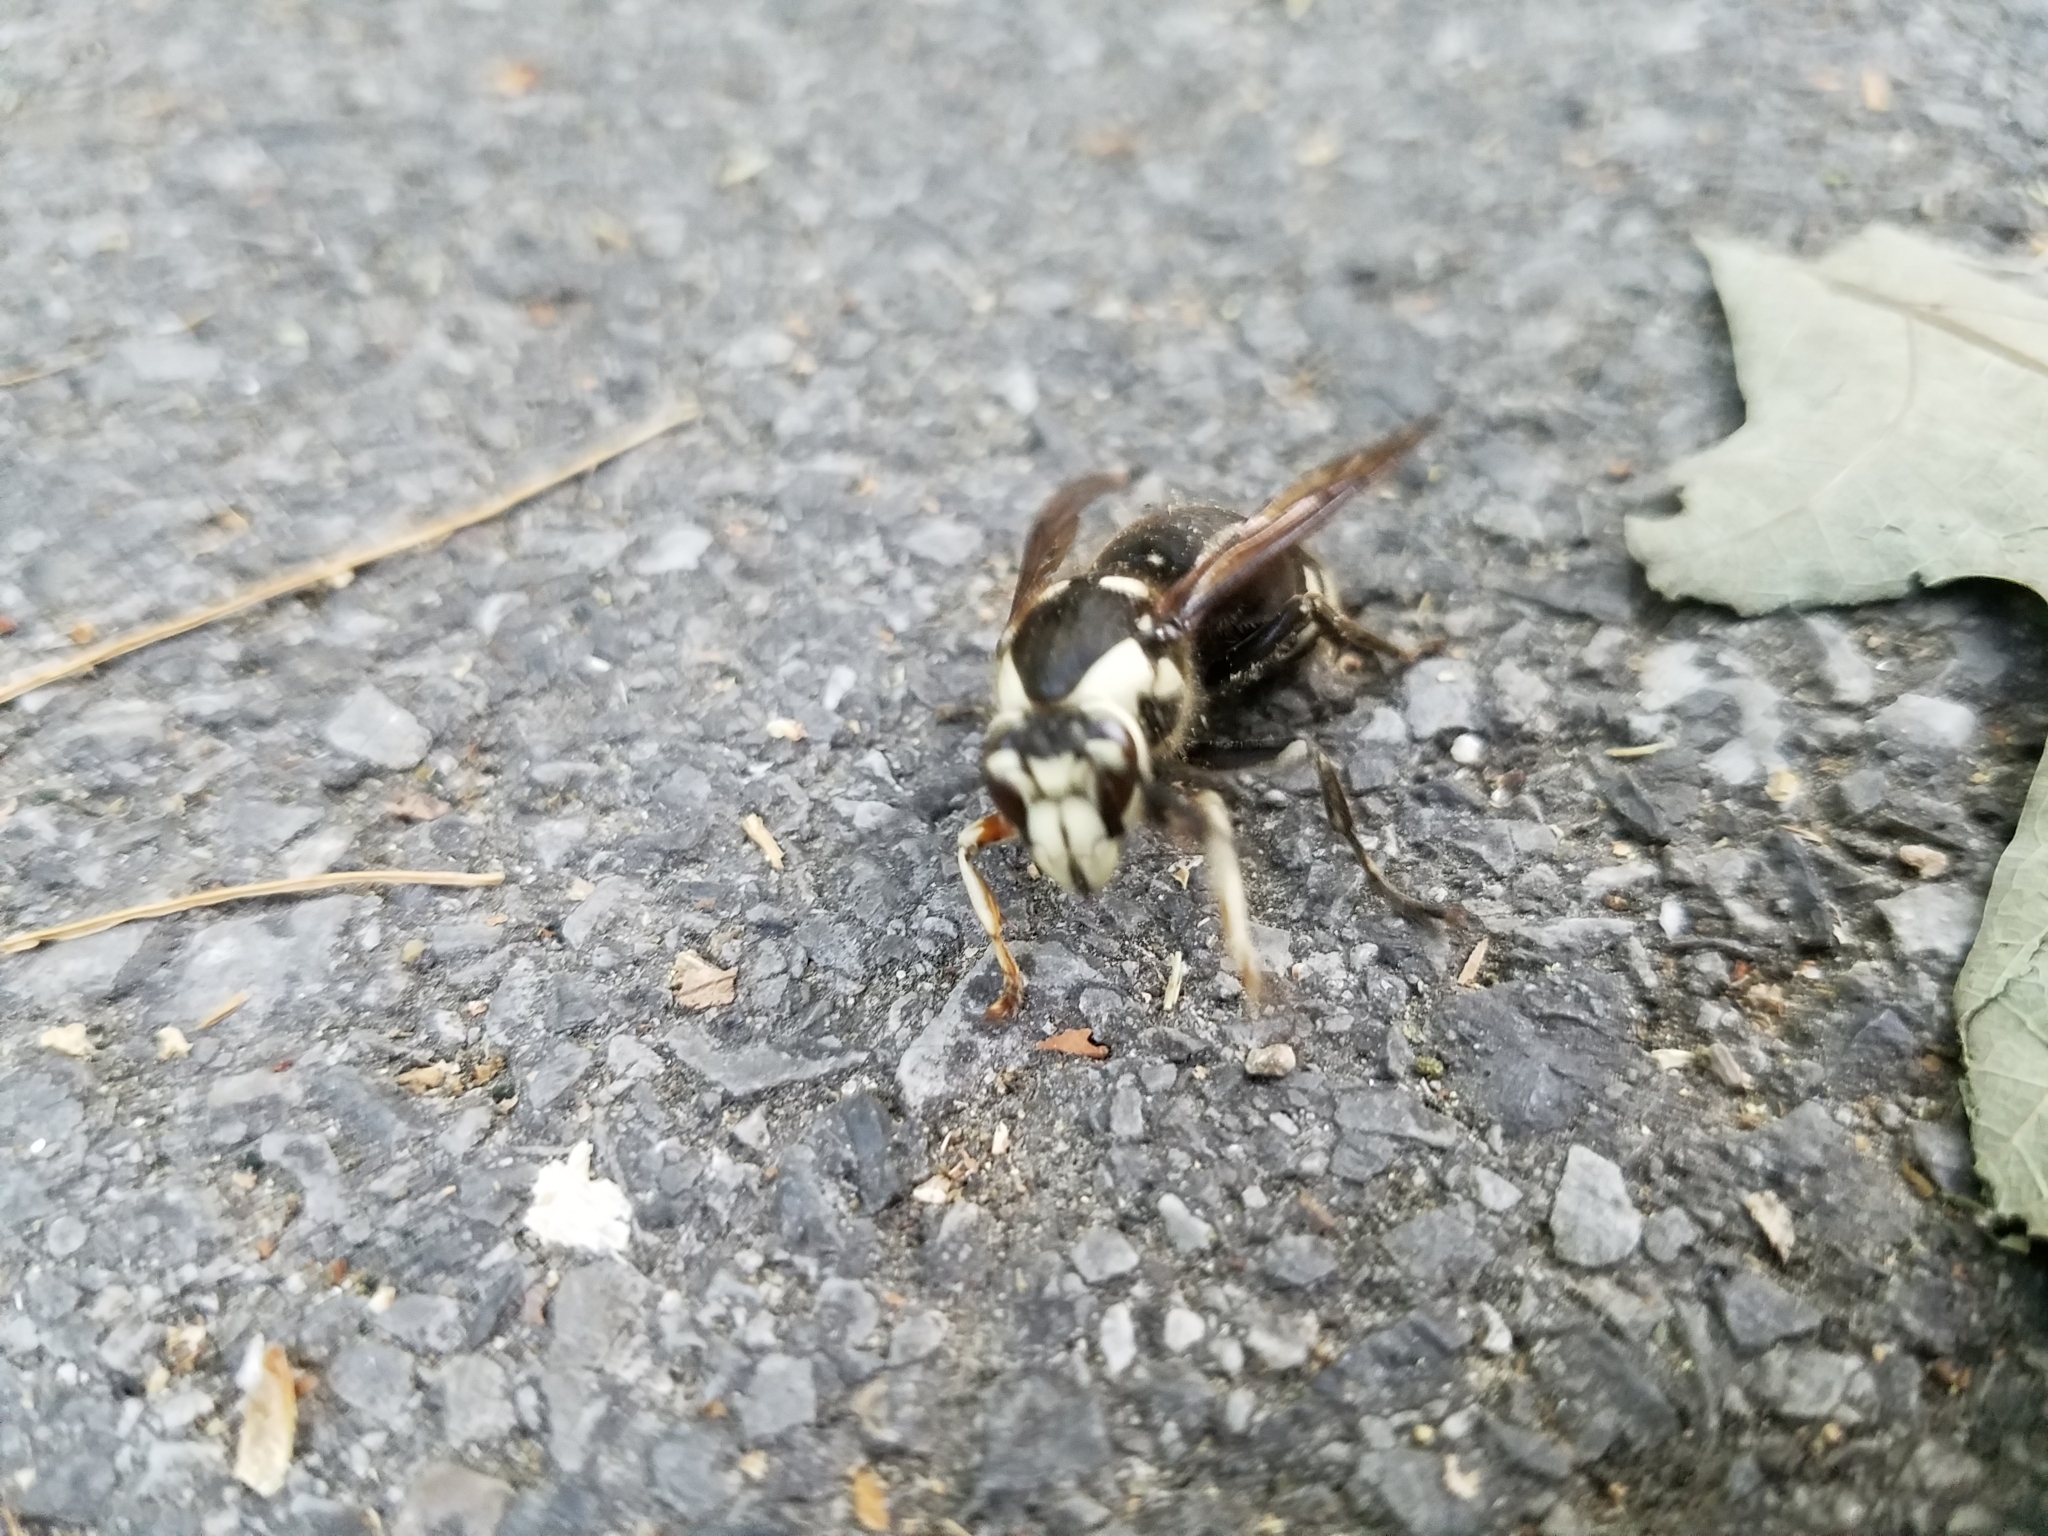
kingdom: Animalia
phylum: Arthropoda
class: Insecta
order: Hymenoptera
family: Vespidae
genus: Dolichovespula
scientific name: Dolichovespula maculata
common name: Bald-faced hornet
